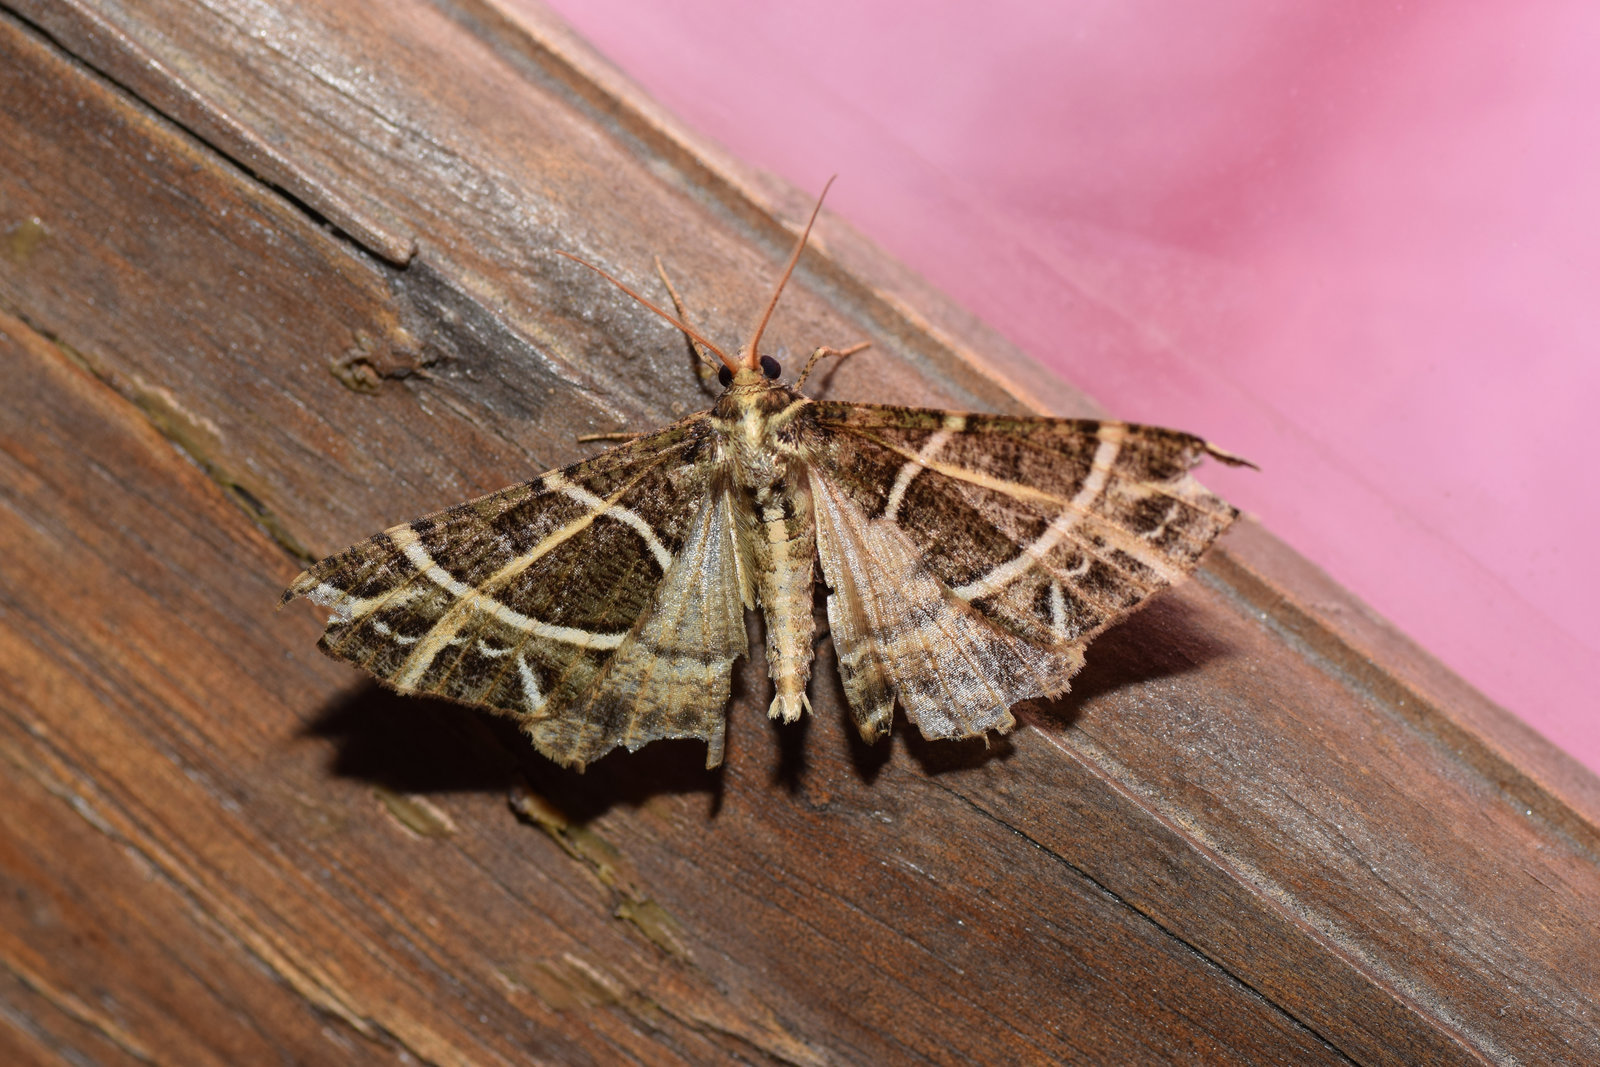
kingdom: Animalia
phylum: Arthropoda
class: Insecta
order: Lepidoptera
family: Geometridae
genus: Arichanna
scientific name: Arichanna transfasciata
